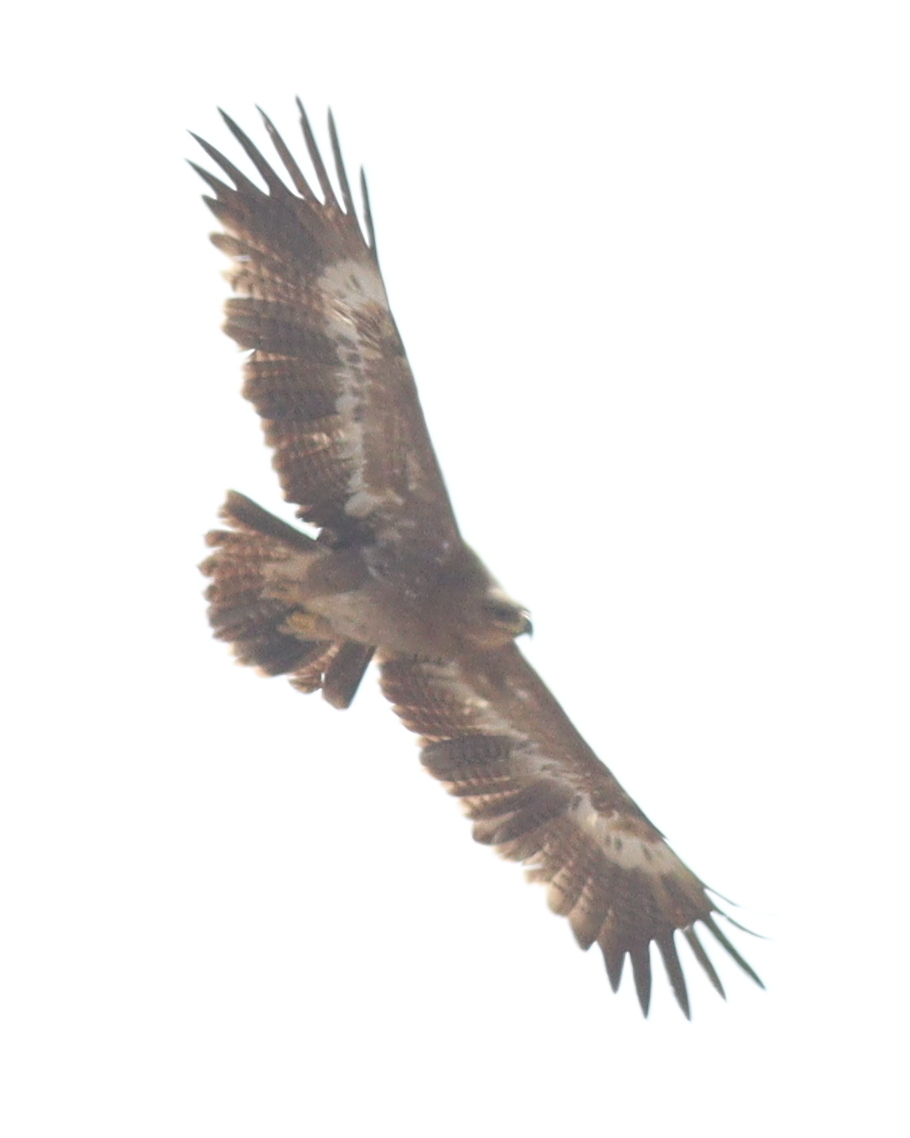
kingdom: Animalia
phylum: Chordata
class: Aves
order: Accipitriformes
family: Accipitridae
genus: Aquila
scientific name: Aquila nipalensis
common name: Steppe eagle
